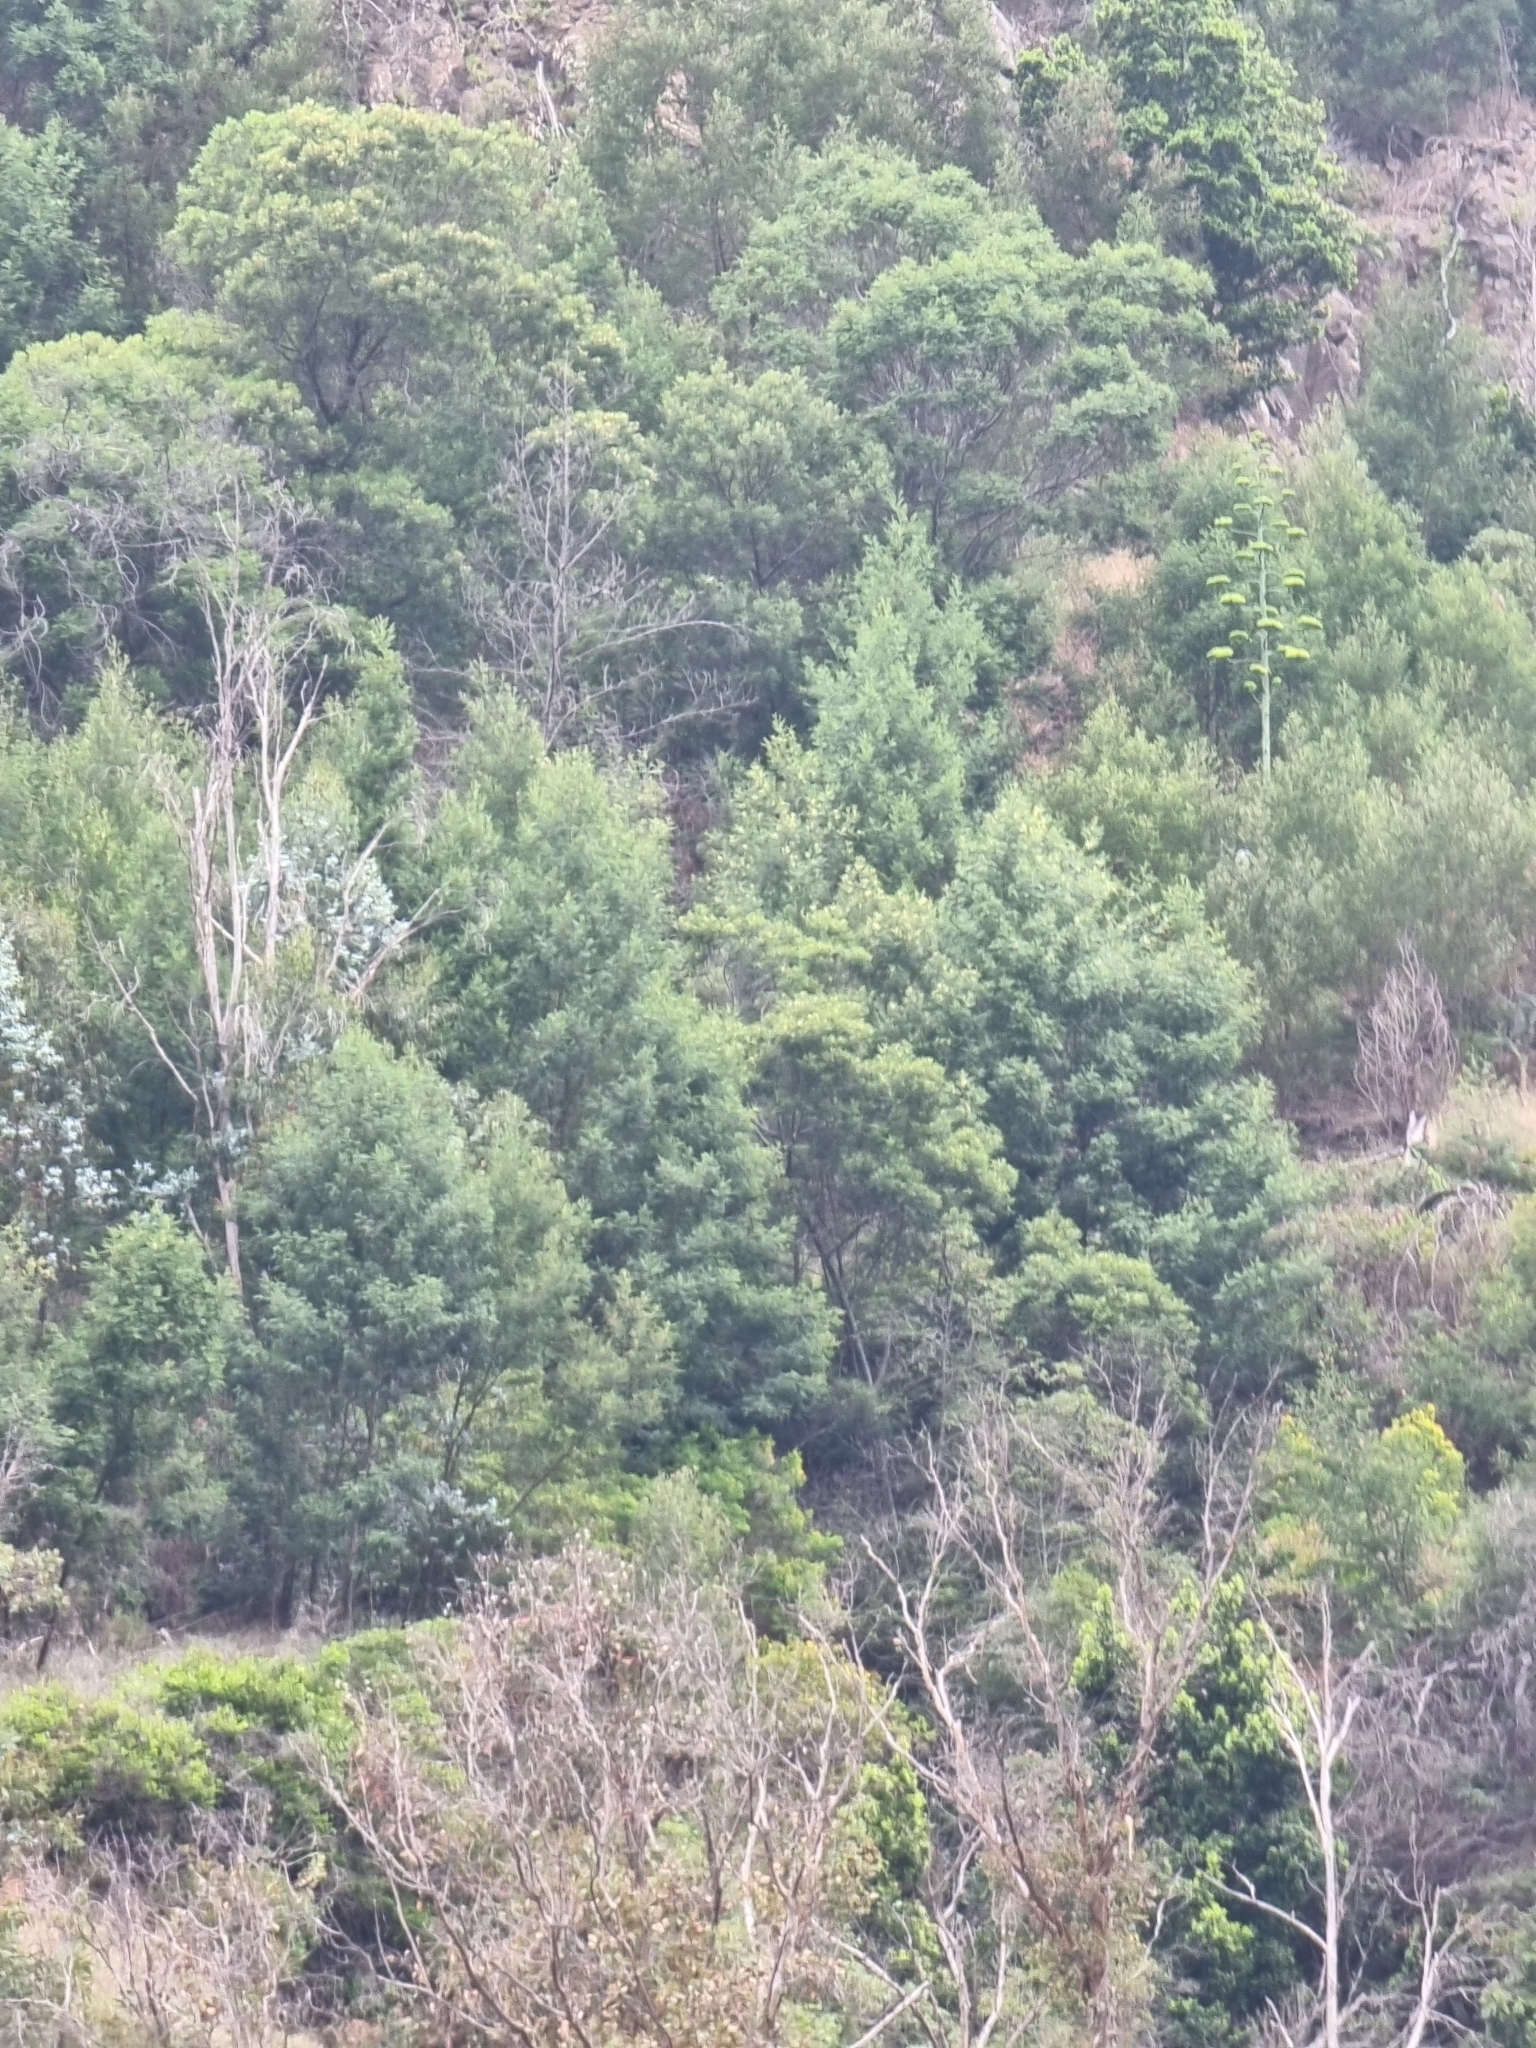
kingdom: Plantae
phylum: Tracheophyta
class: Magnoliopsida
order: Fabales
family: Fabaceae
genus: Acacia
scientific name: Acacia mearnsii
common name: Black wattle
